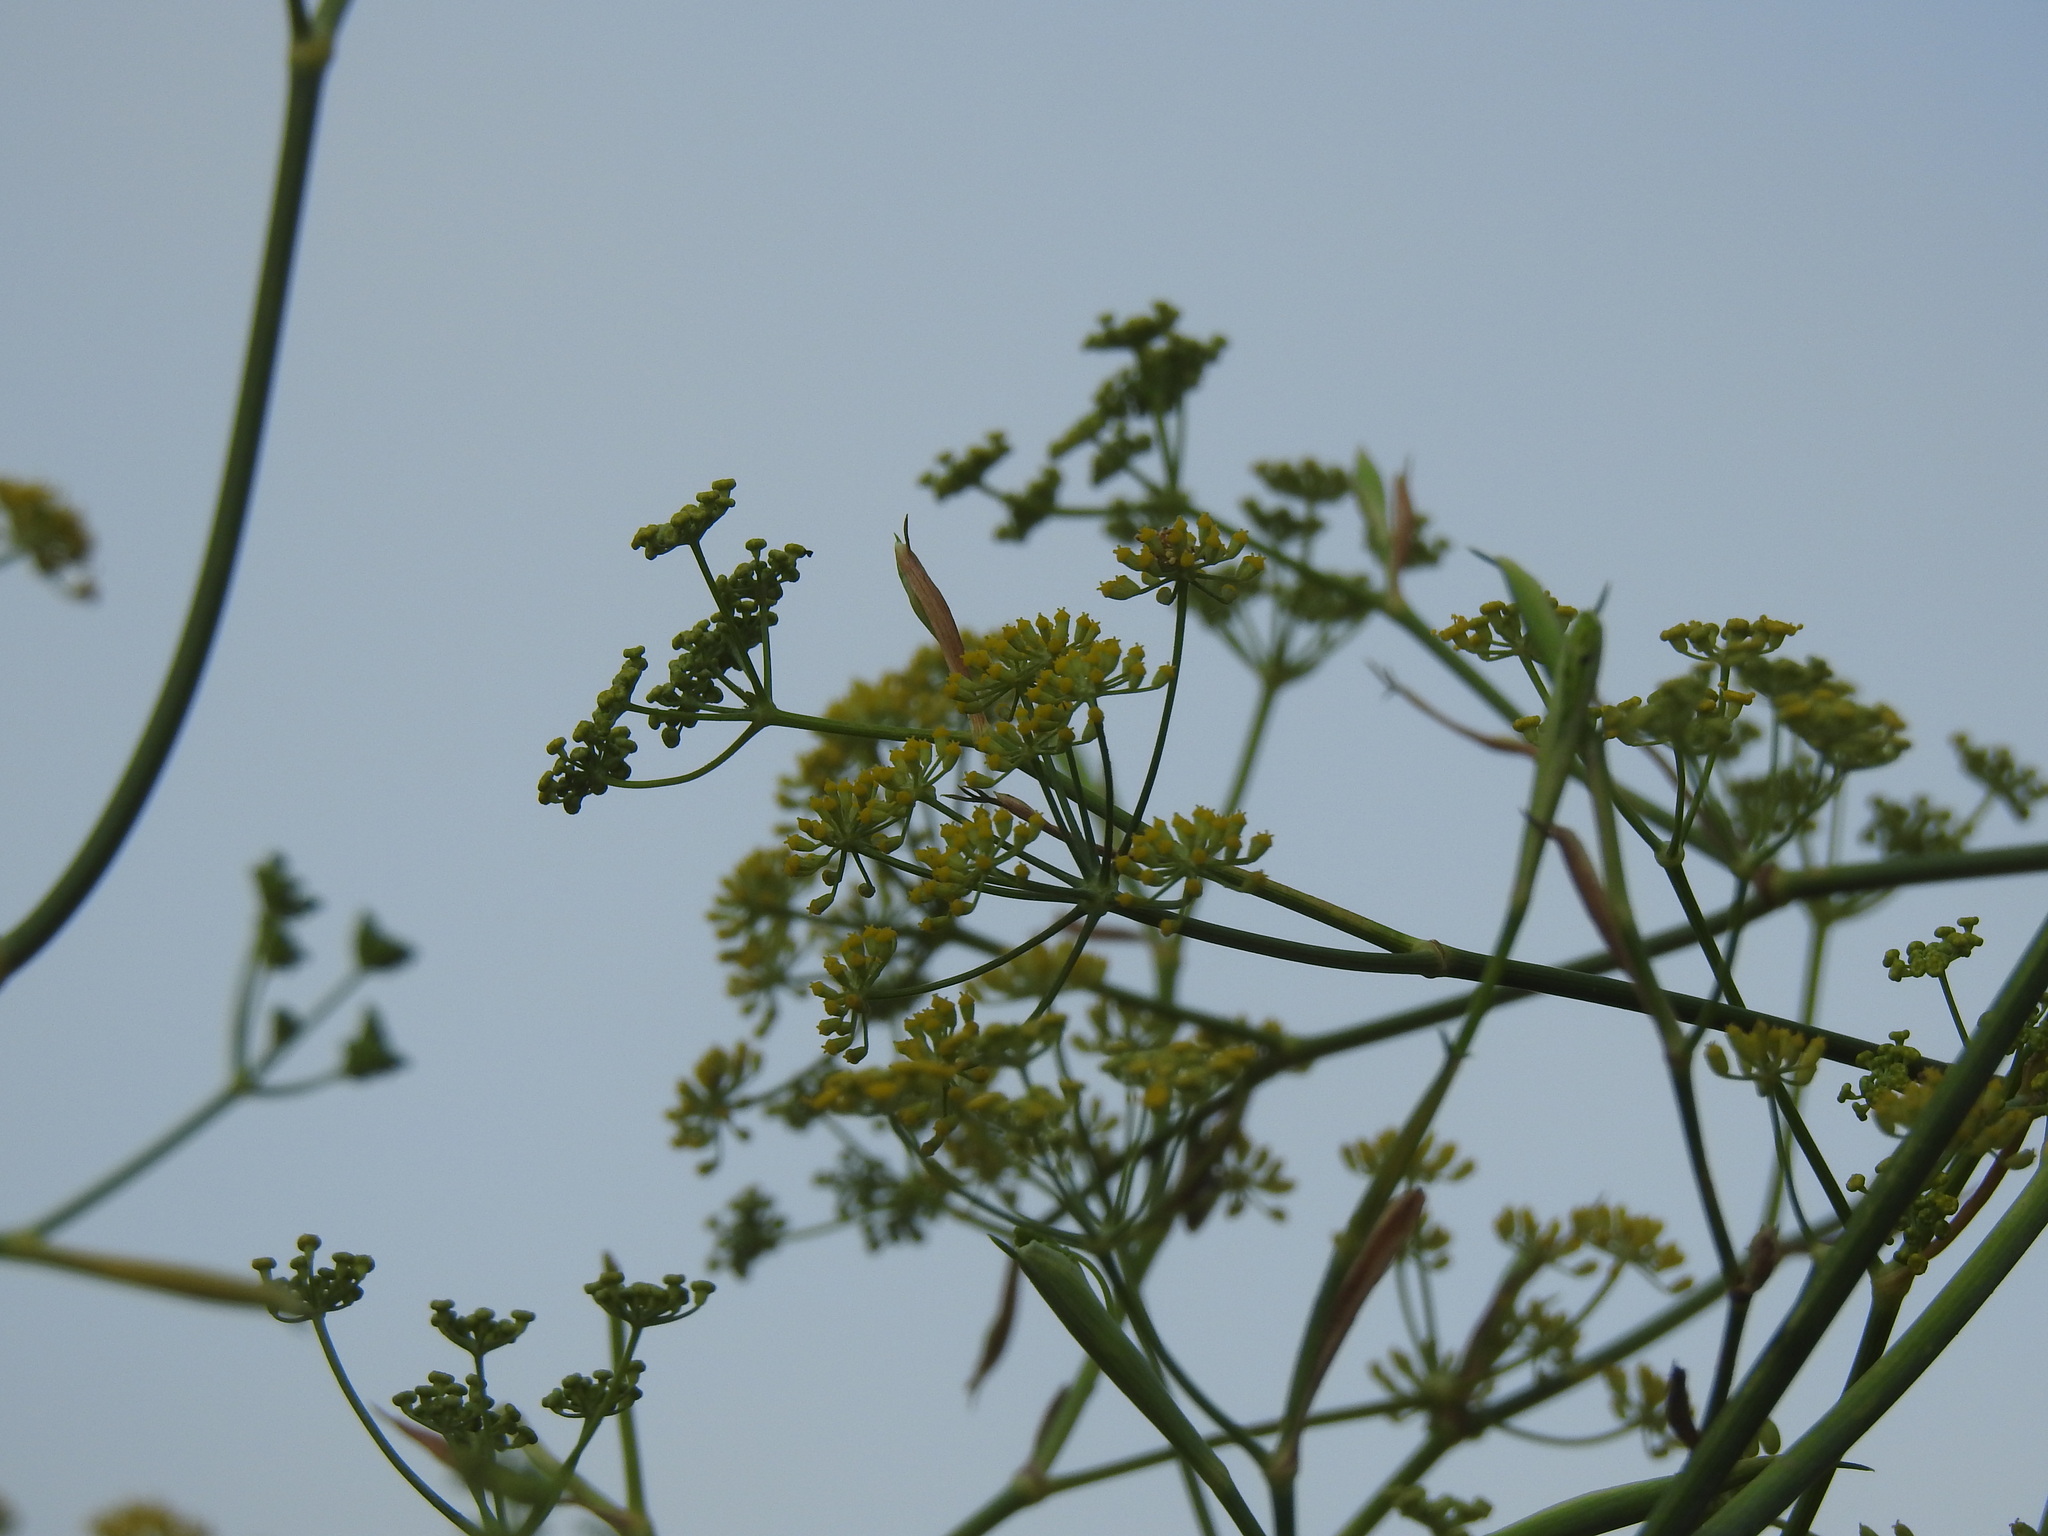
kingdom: Plantae
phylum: Tracheophyta
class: Magnoliopsida
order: Apiales
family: Apiaceae
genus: Foeniculum
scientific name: Foeniculum vulgare
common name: Fennel
